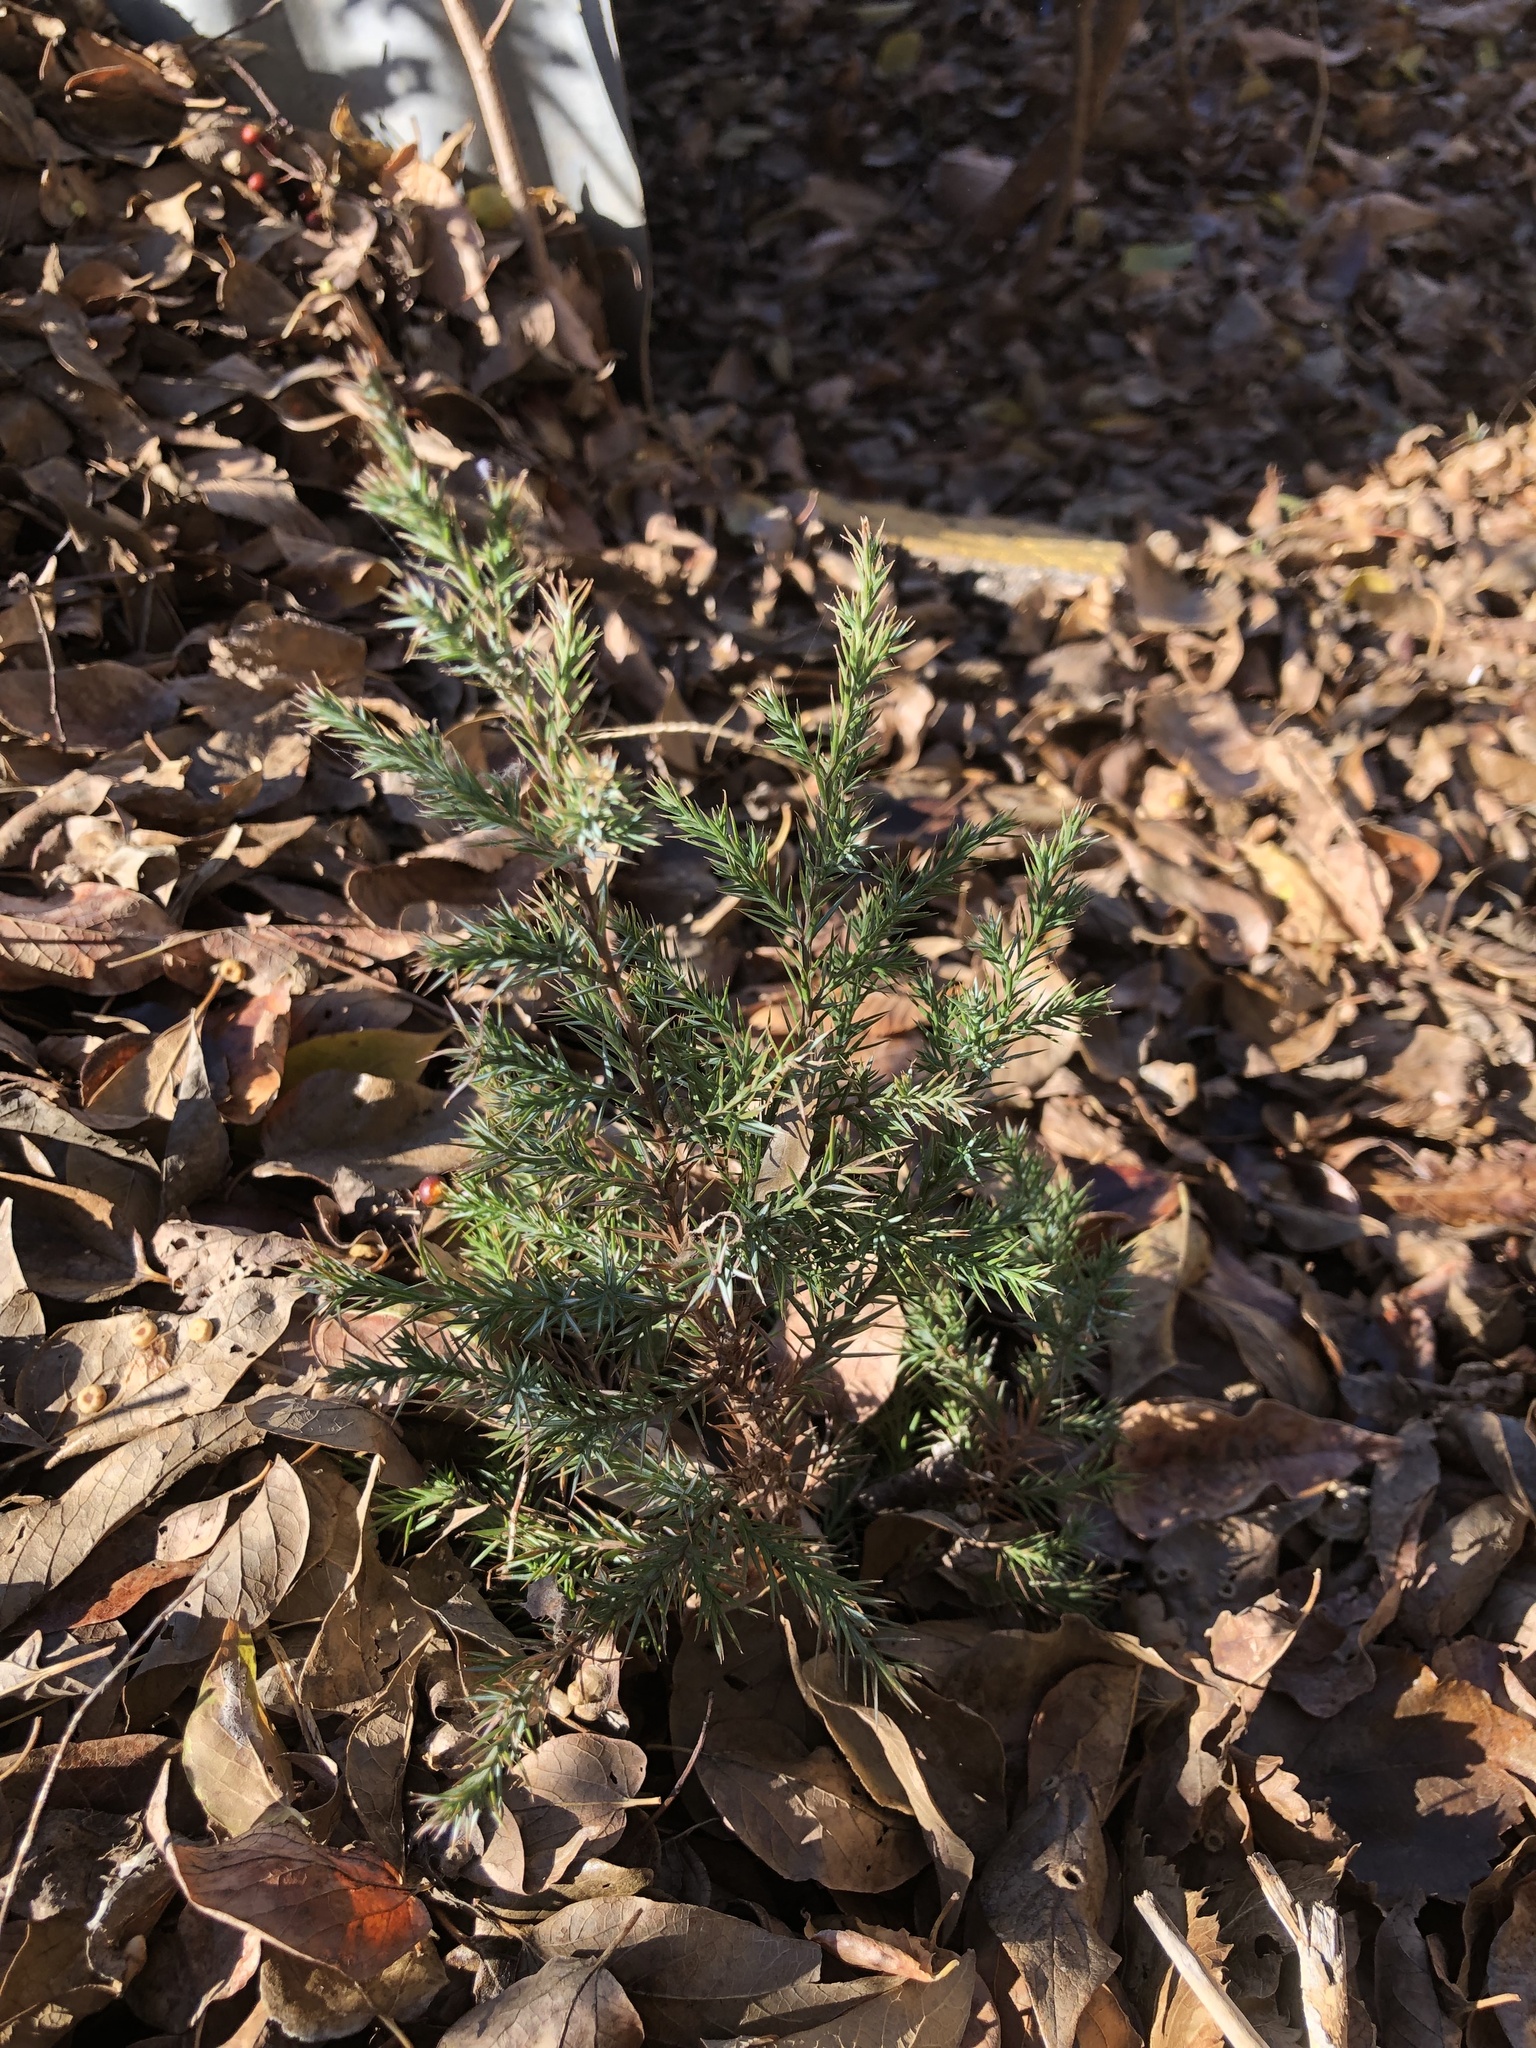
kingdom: Plantae
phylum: Tracheophyta
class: Pinopsida
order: Pinales
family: Cupressaceae
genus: Juniperus
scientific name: Juniperus virginiana
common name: Red juniper
